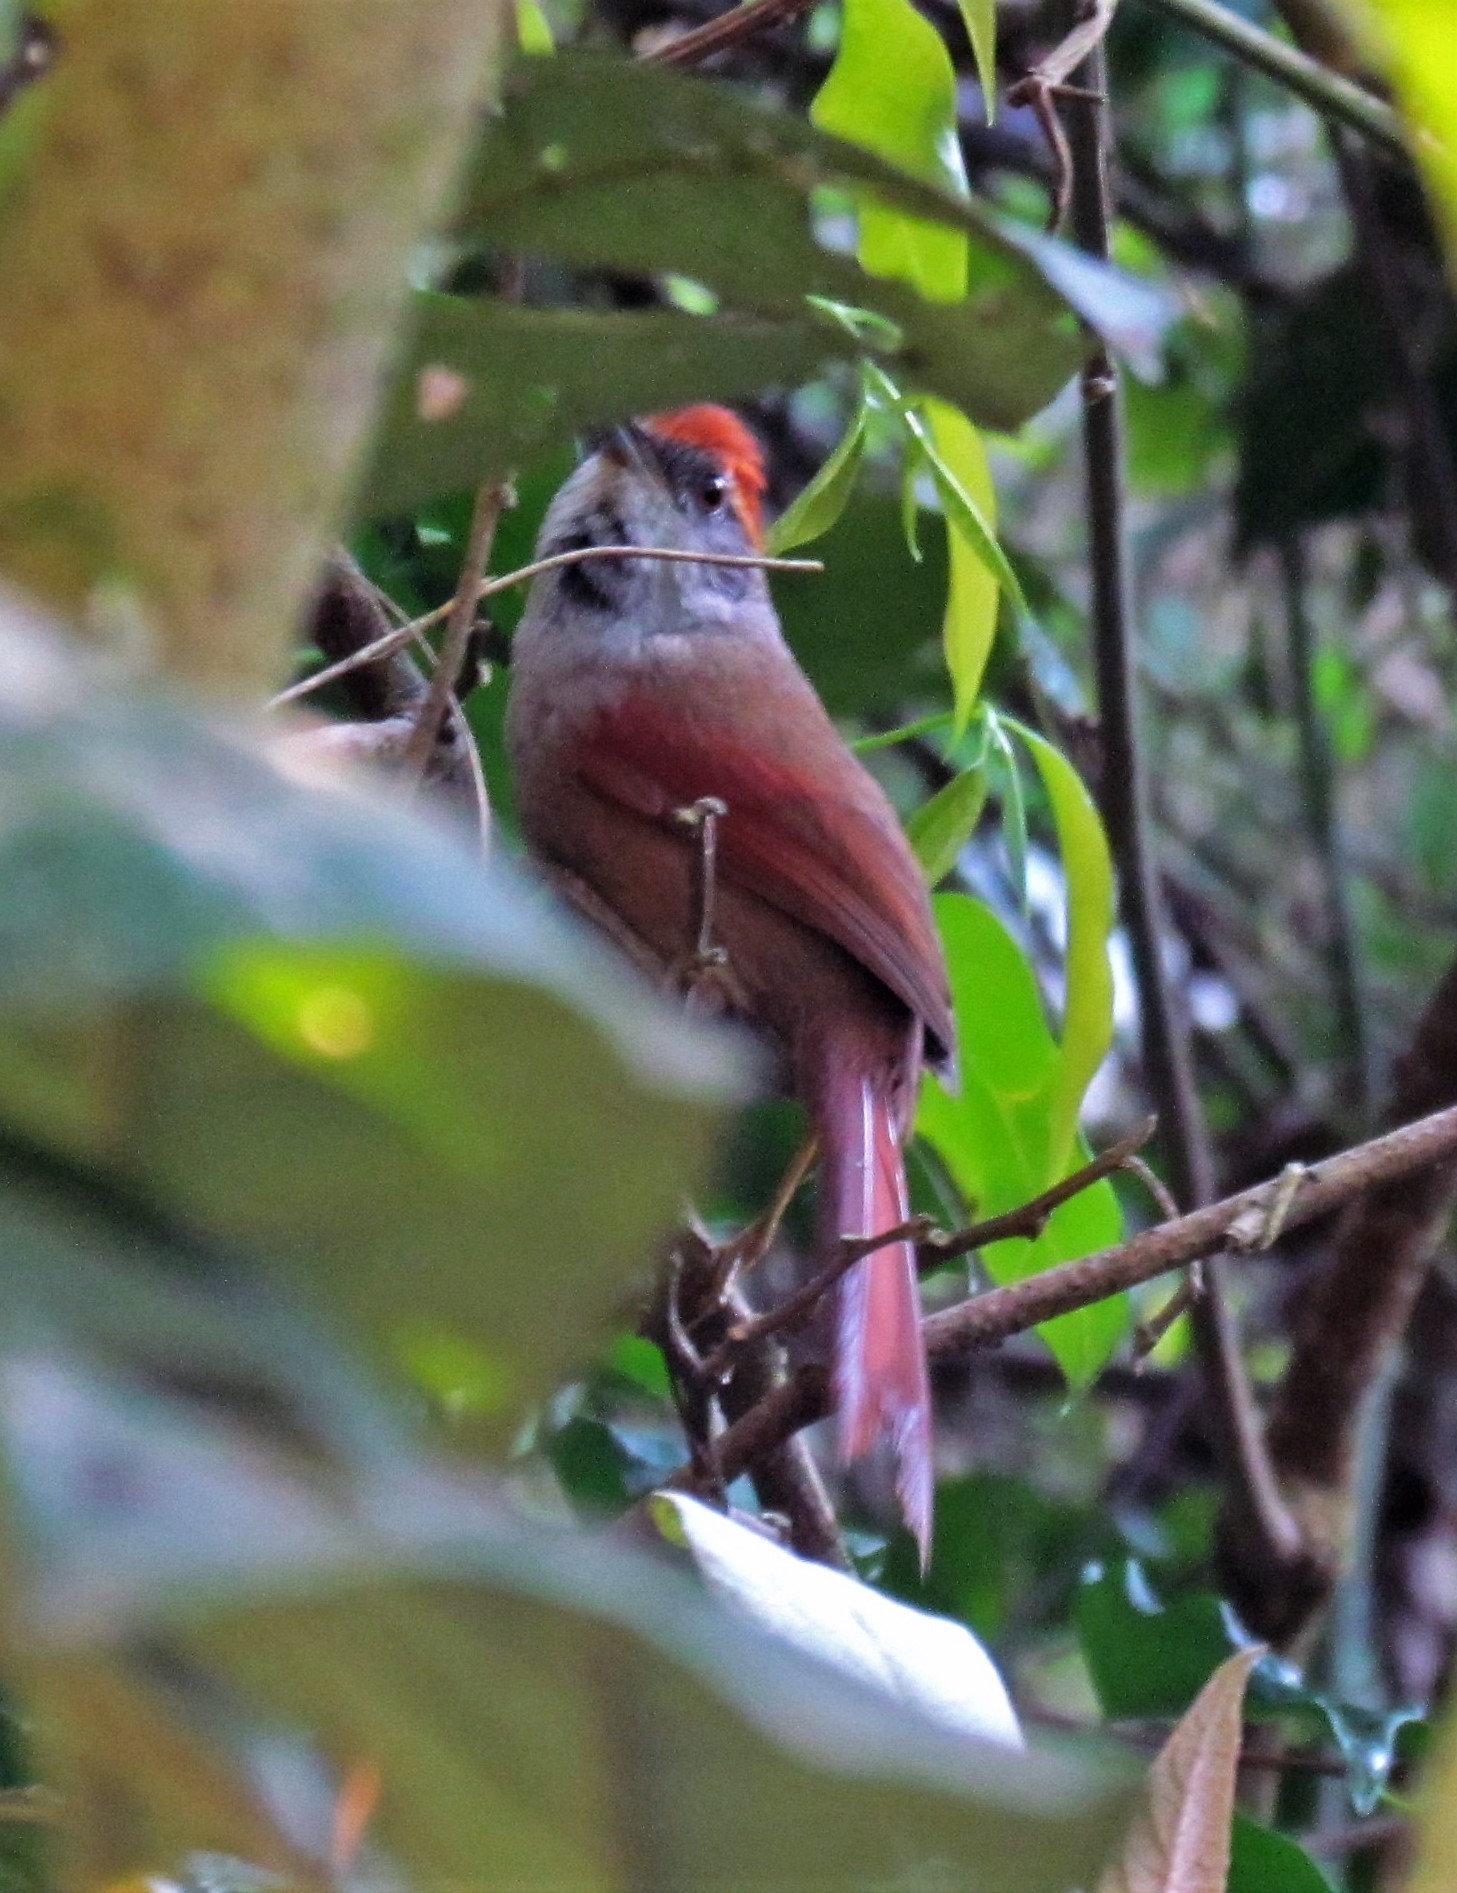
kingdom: Animalia
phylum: Chordata
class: Aves
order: Passeriformes
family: Furnariidae
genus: Synallaxis
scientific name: Synallaxis ruficapilla
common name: Rufous-capped spinetail
